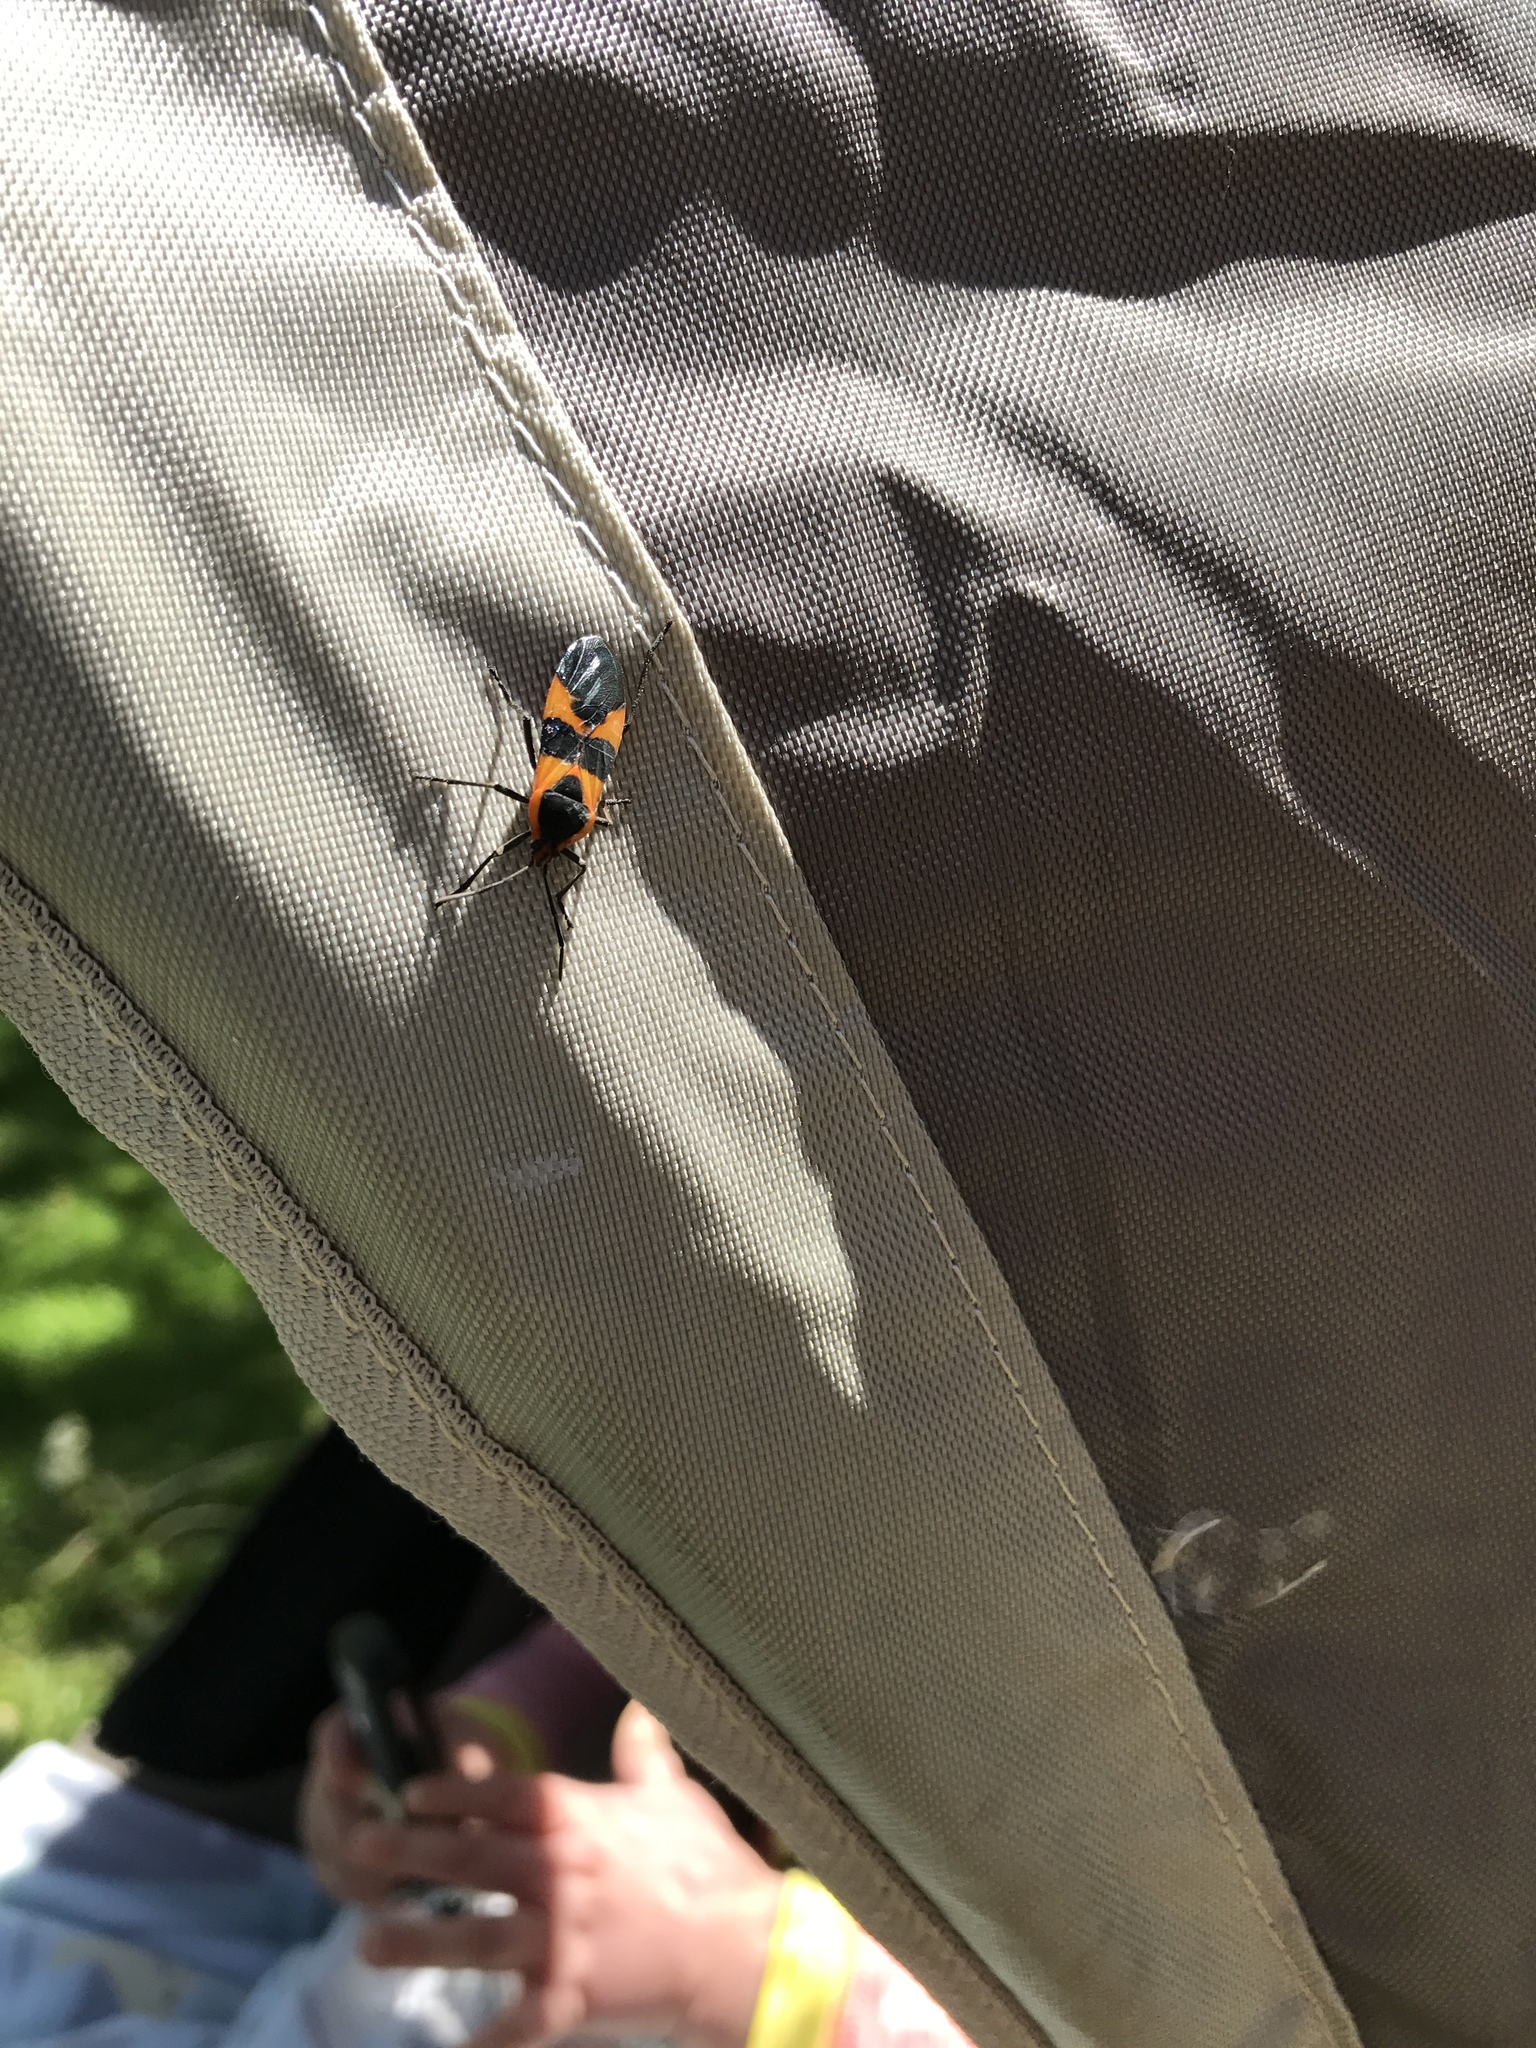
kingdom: Animalia
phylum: Arthropoda
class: Insecta
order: Hemiptera
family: Lygaeidae
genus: Oncopeltus
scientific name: Oncopeltus fasciatus
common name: Large milkweed bug
